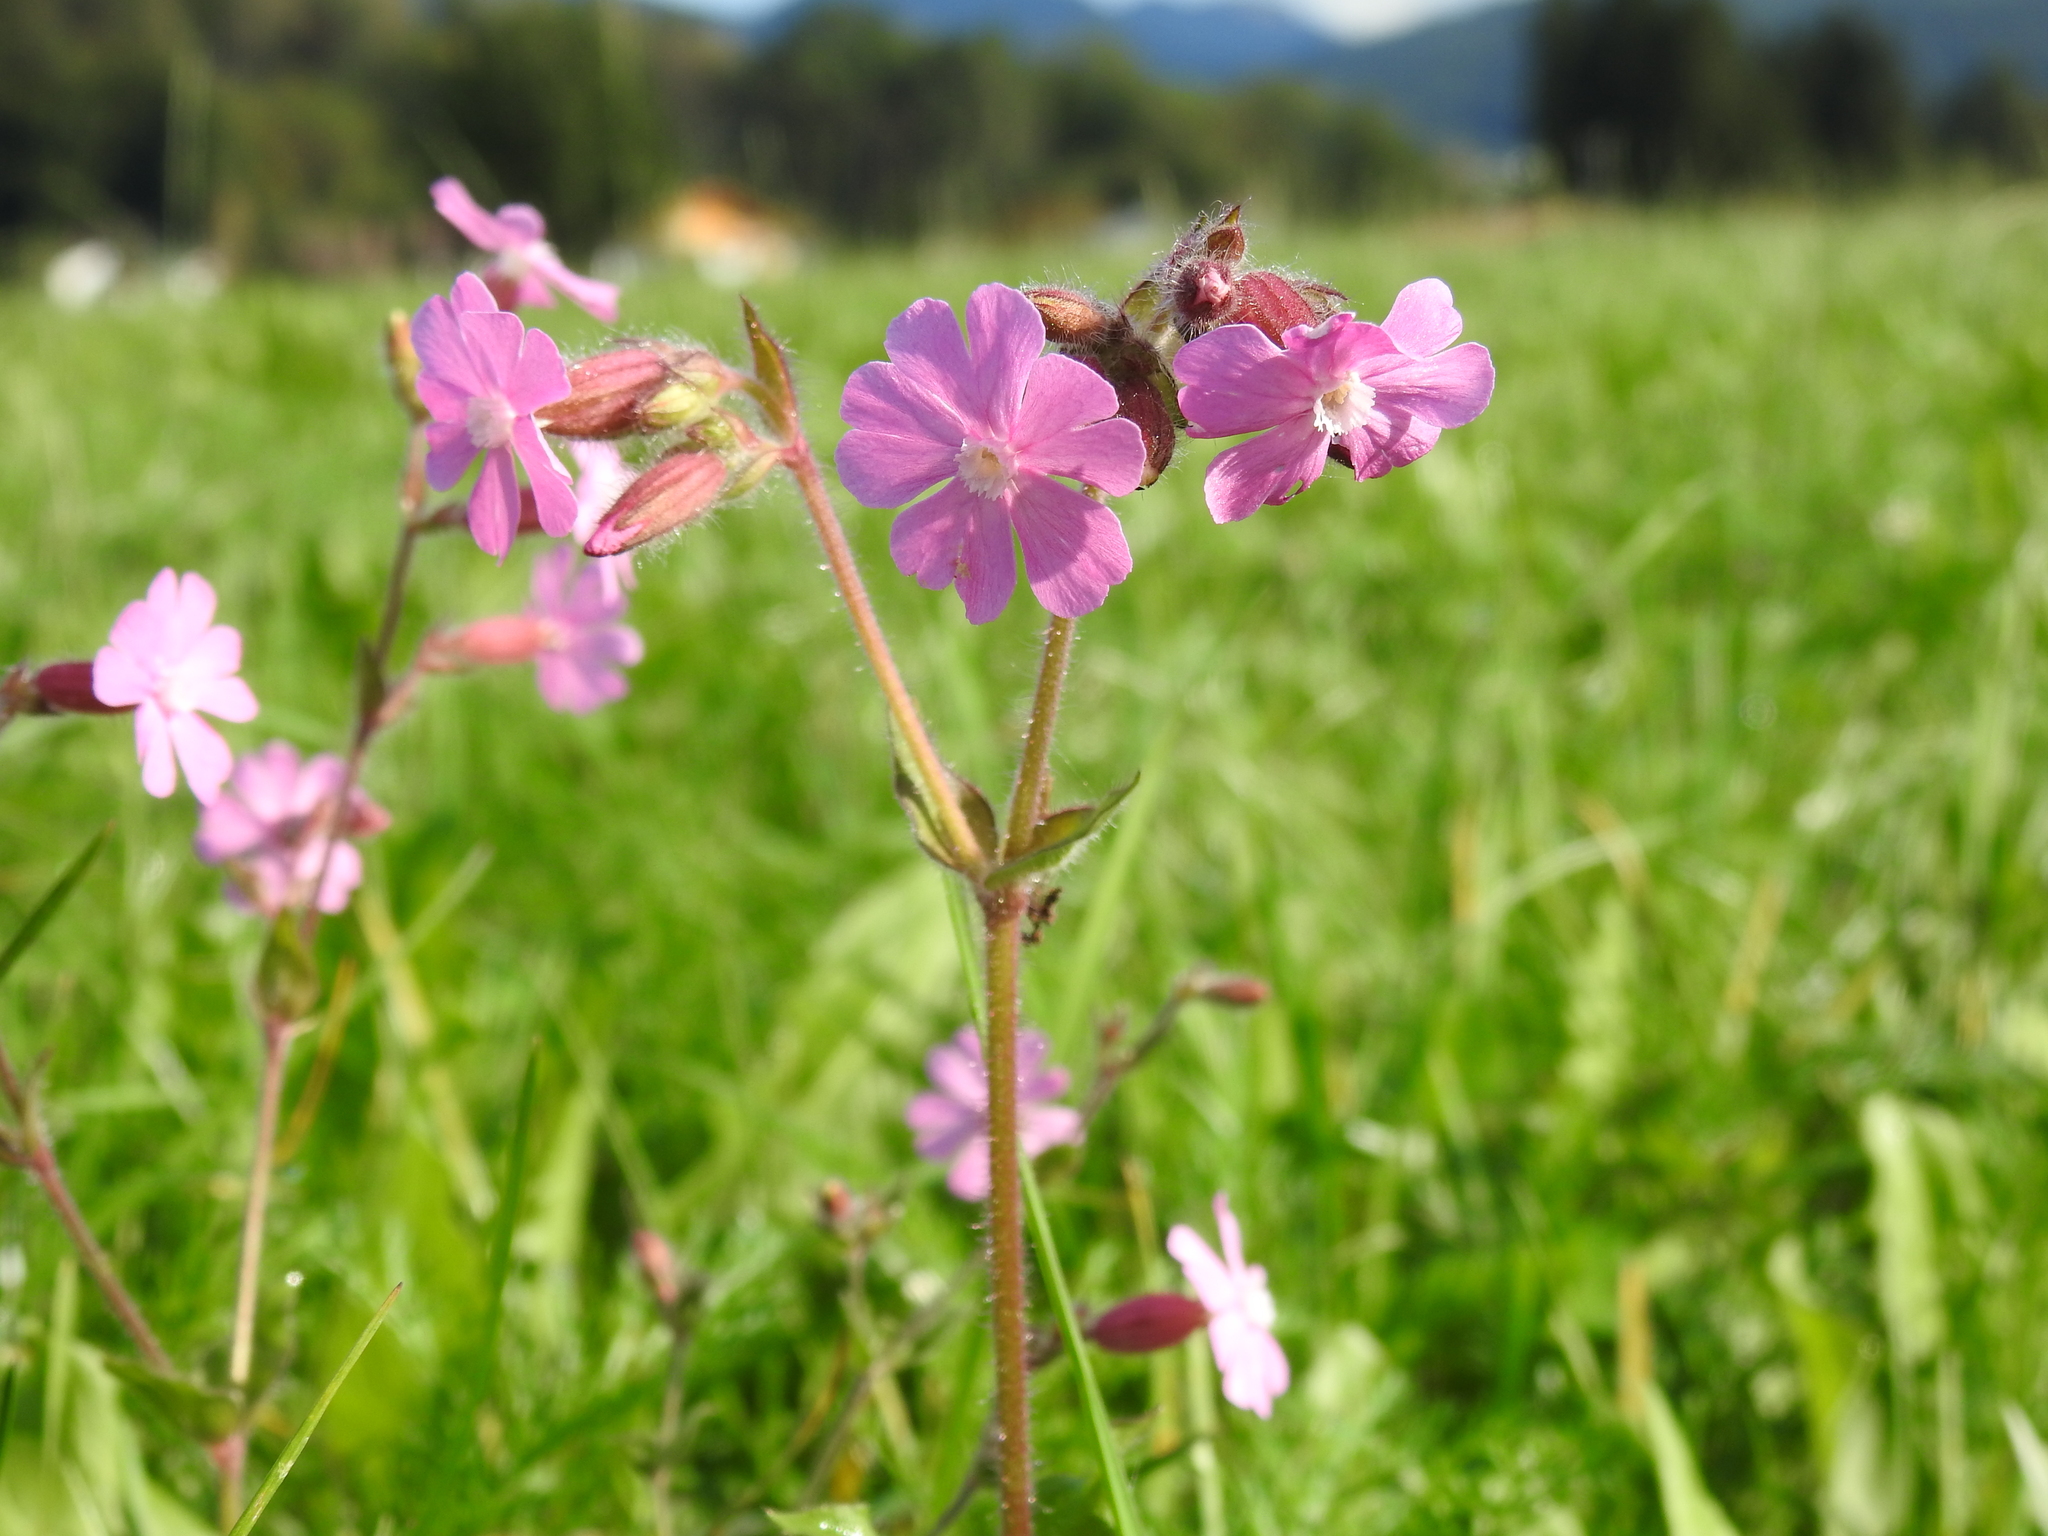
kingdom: Plantae
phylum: Tracheophyta
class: Magnoliopsida
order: Caryophyllales
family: Caryophyllaceae
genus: Silene
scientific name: Silene dioica
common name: Red campion
